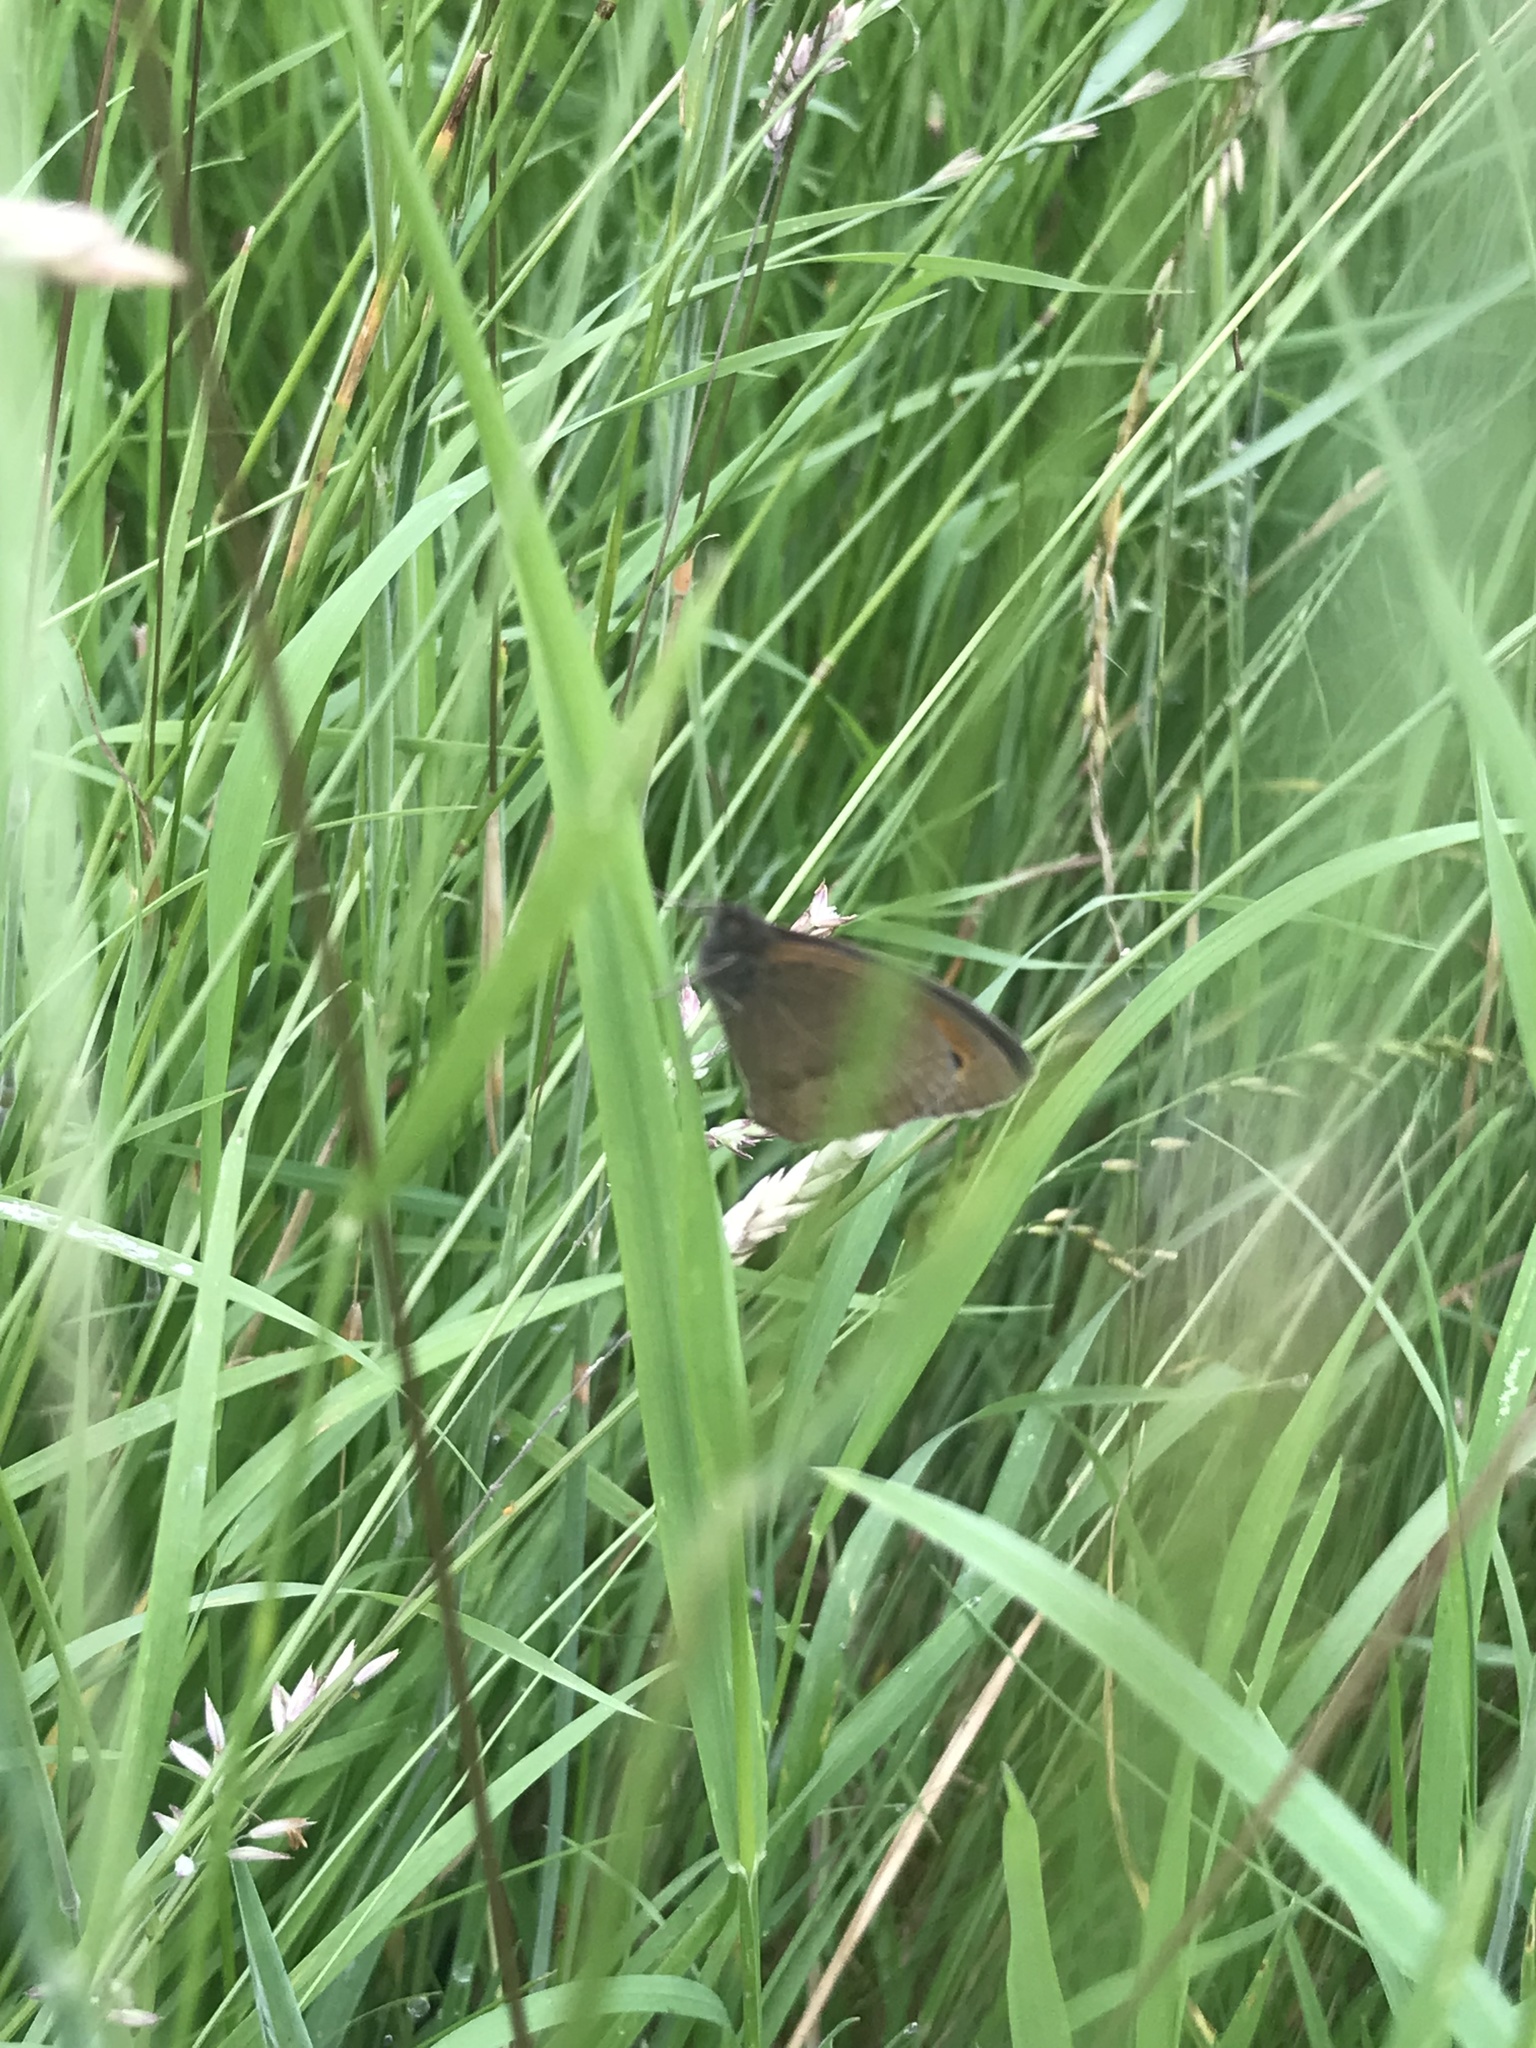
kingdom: Animalia
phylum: Arthropoda
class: Insecta
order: Lepidoptera
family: Nymphalidae
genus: Maniola
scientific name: Maniola jurtina
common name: Meadow brown
